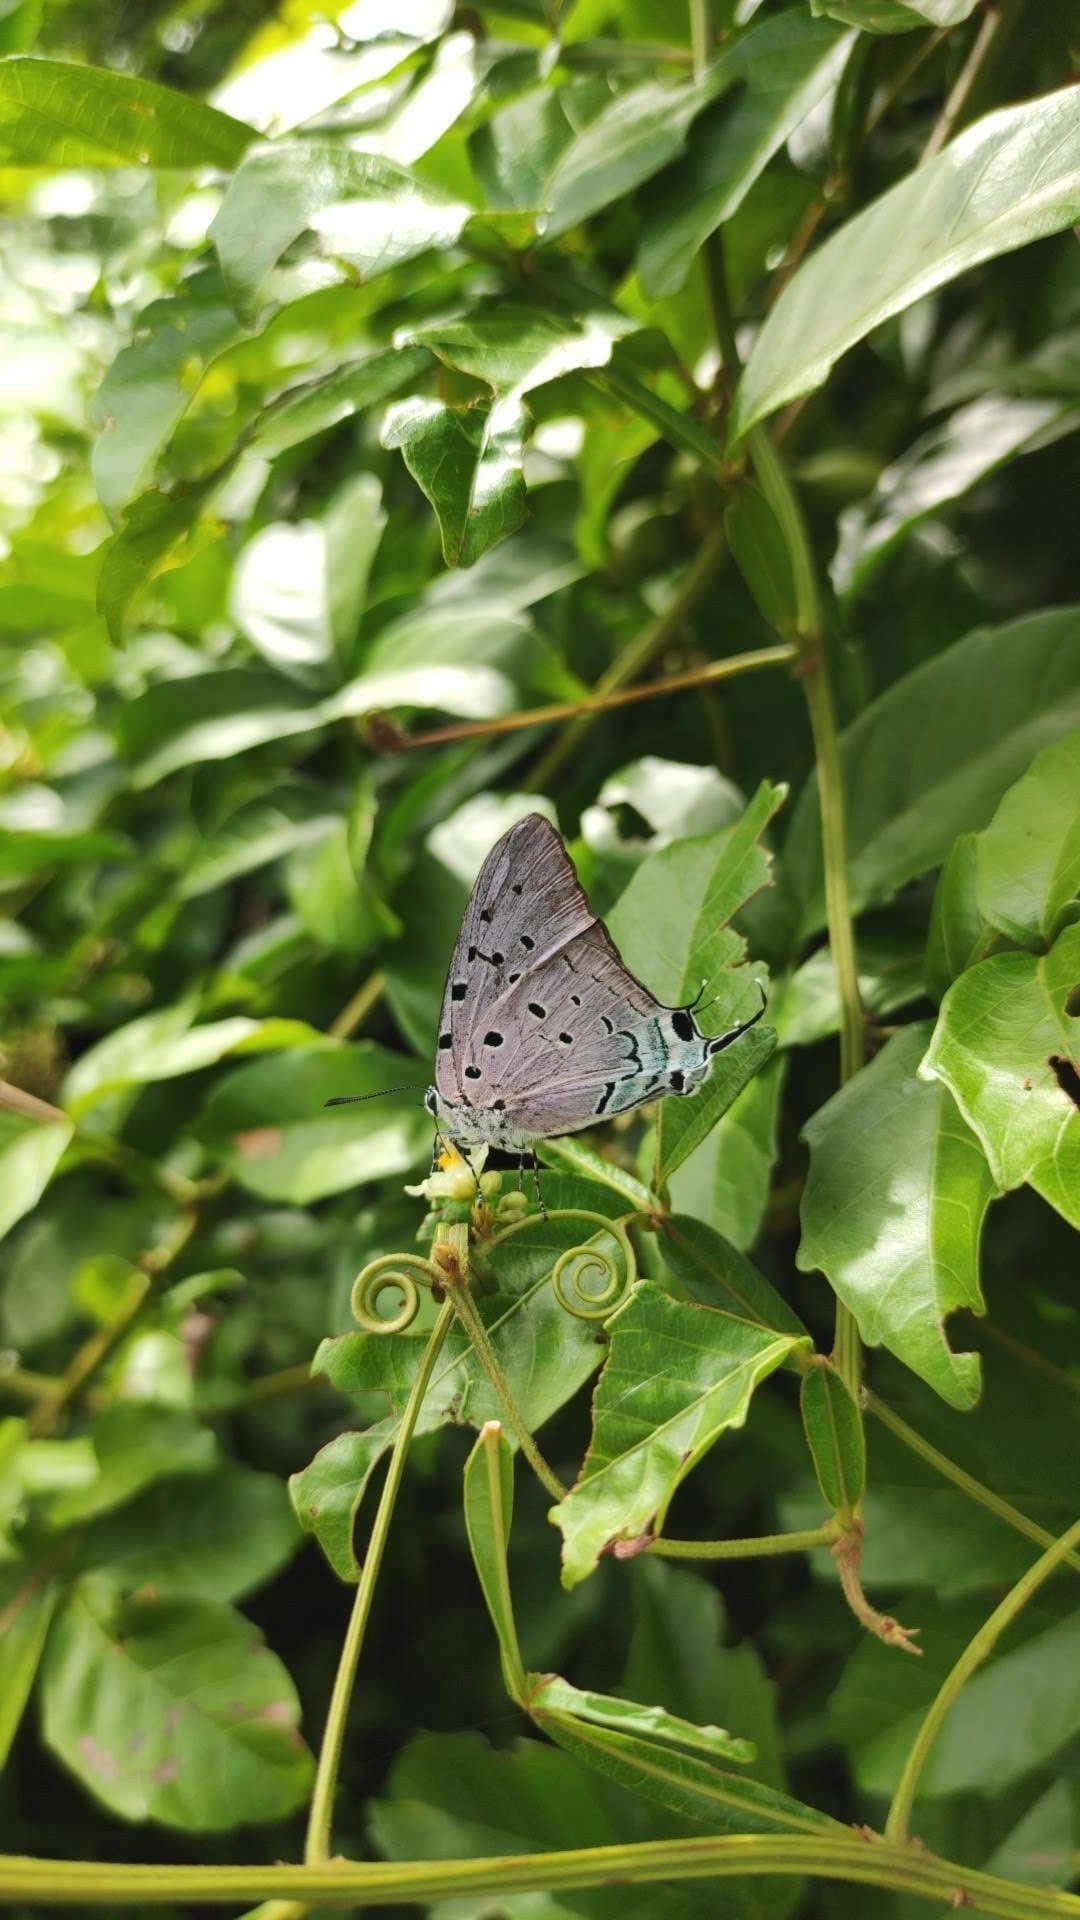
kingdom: Animalia
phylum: Arthropoda
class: Insecta
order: Lepidoptera
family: Lycaenidae
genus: Pseudolycaena
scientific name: Pseudolycaena marsyas
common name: Marsyas hairstreak
